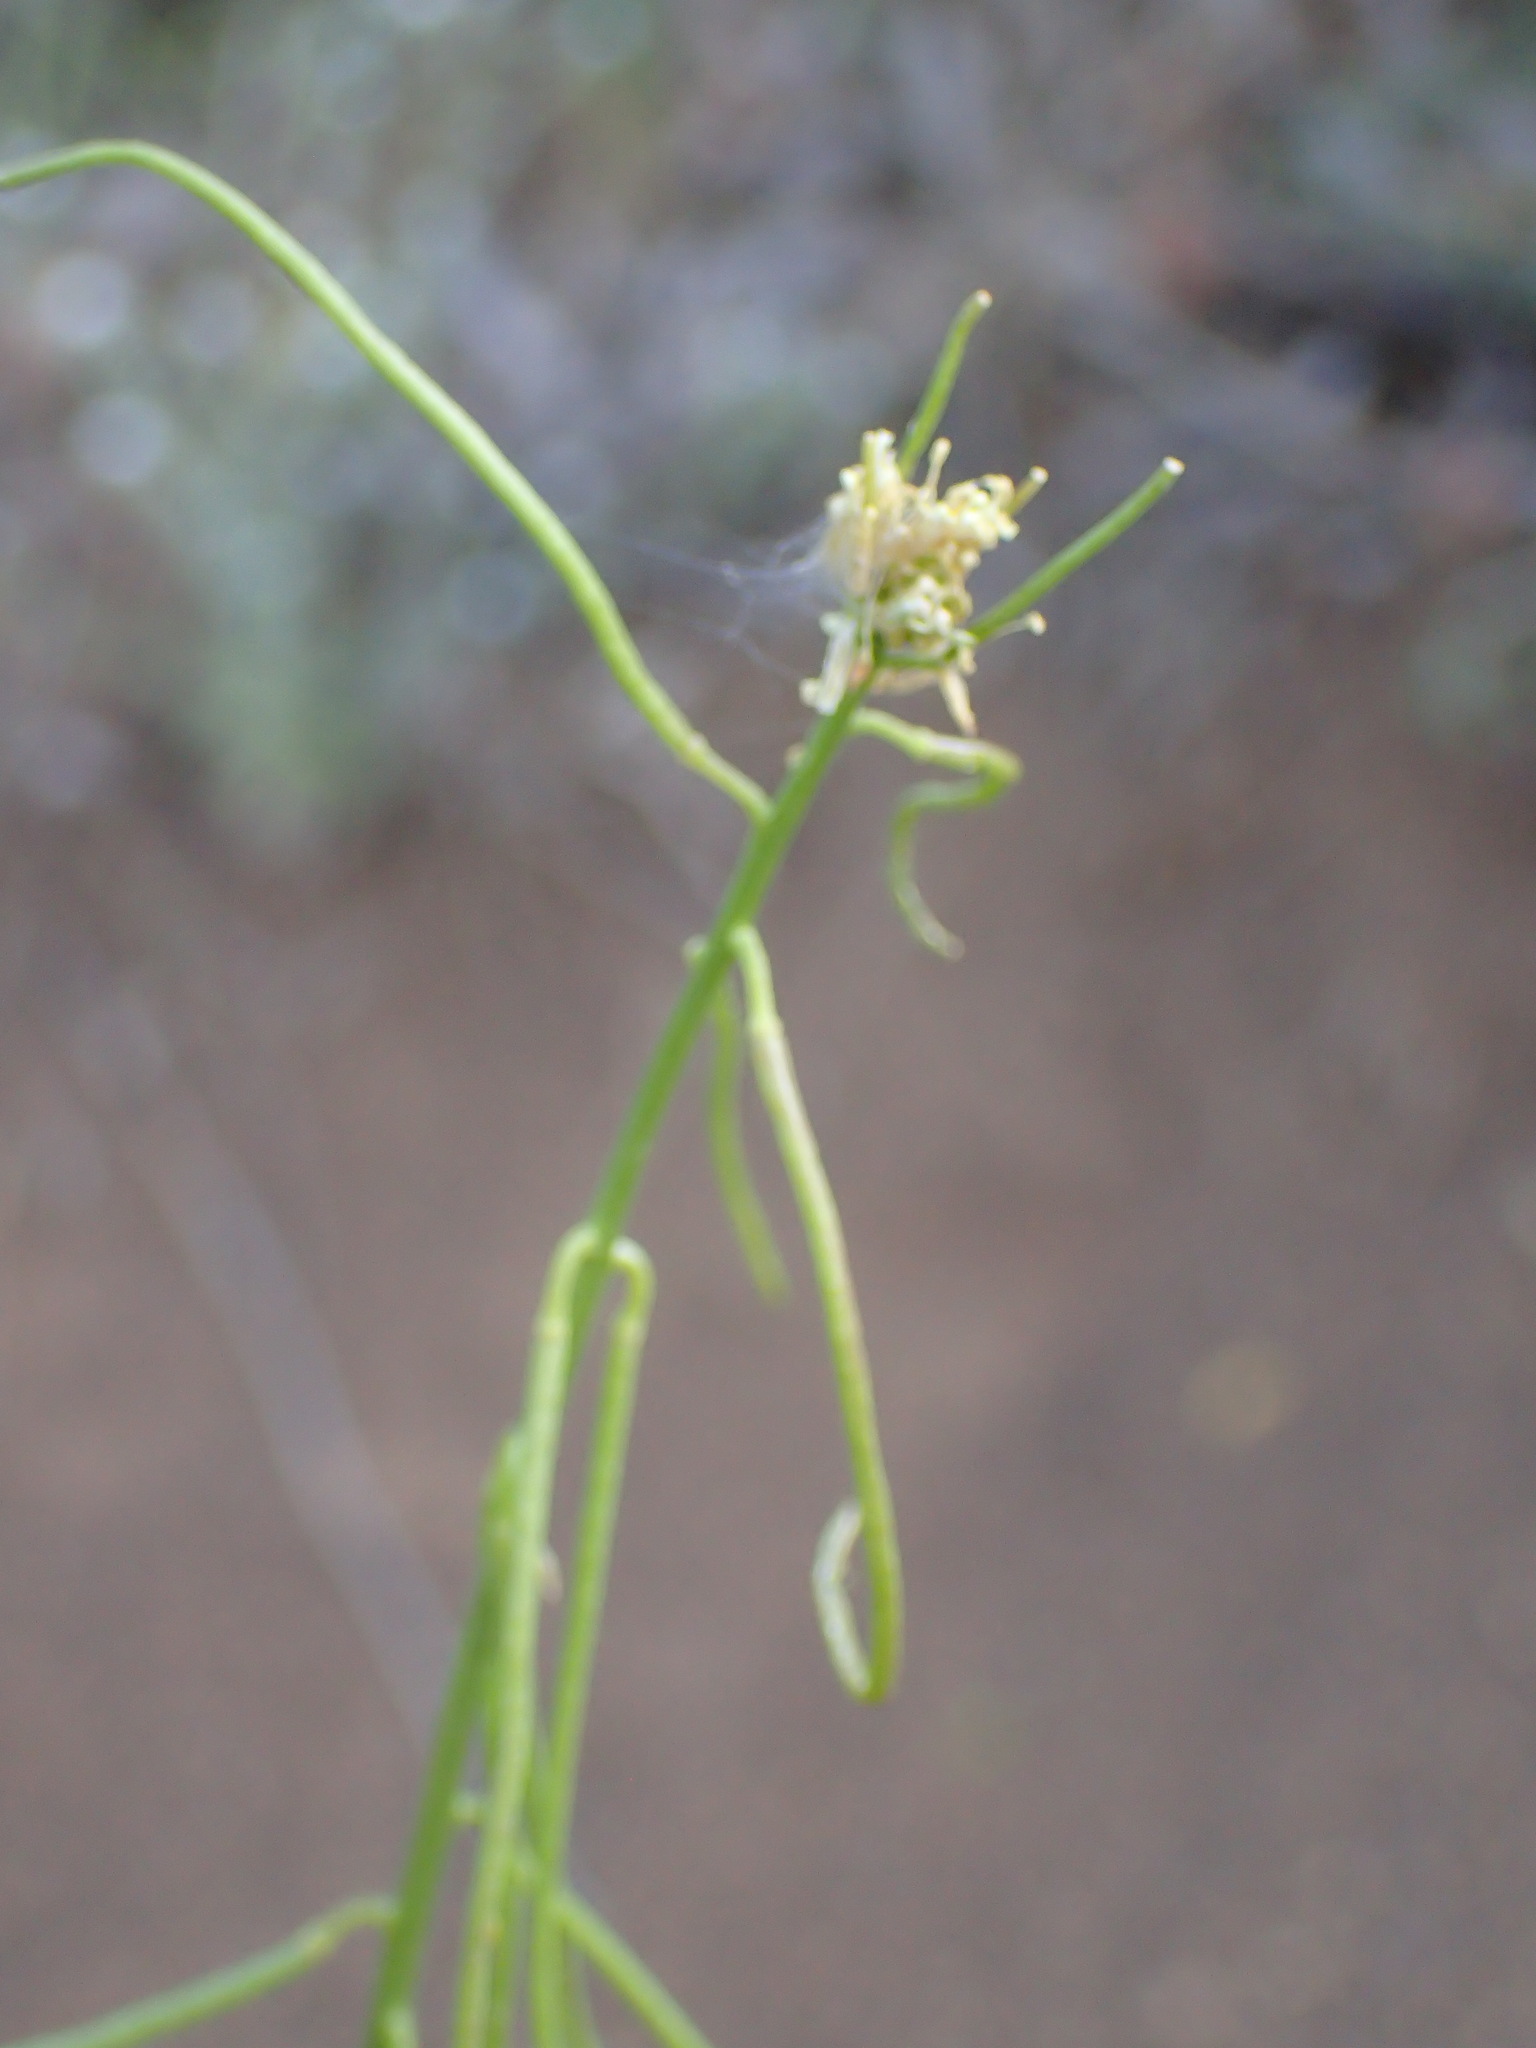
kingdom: Plantae
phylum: Tracheophyta
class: Magnoliopsida
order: Brassicales
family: Brassicaceae
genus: Streptanthus
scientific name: Streptanthus lasiophyllus
